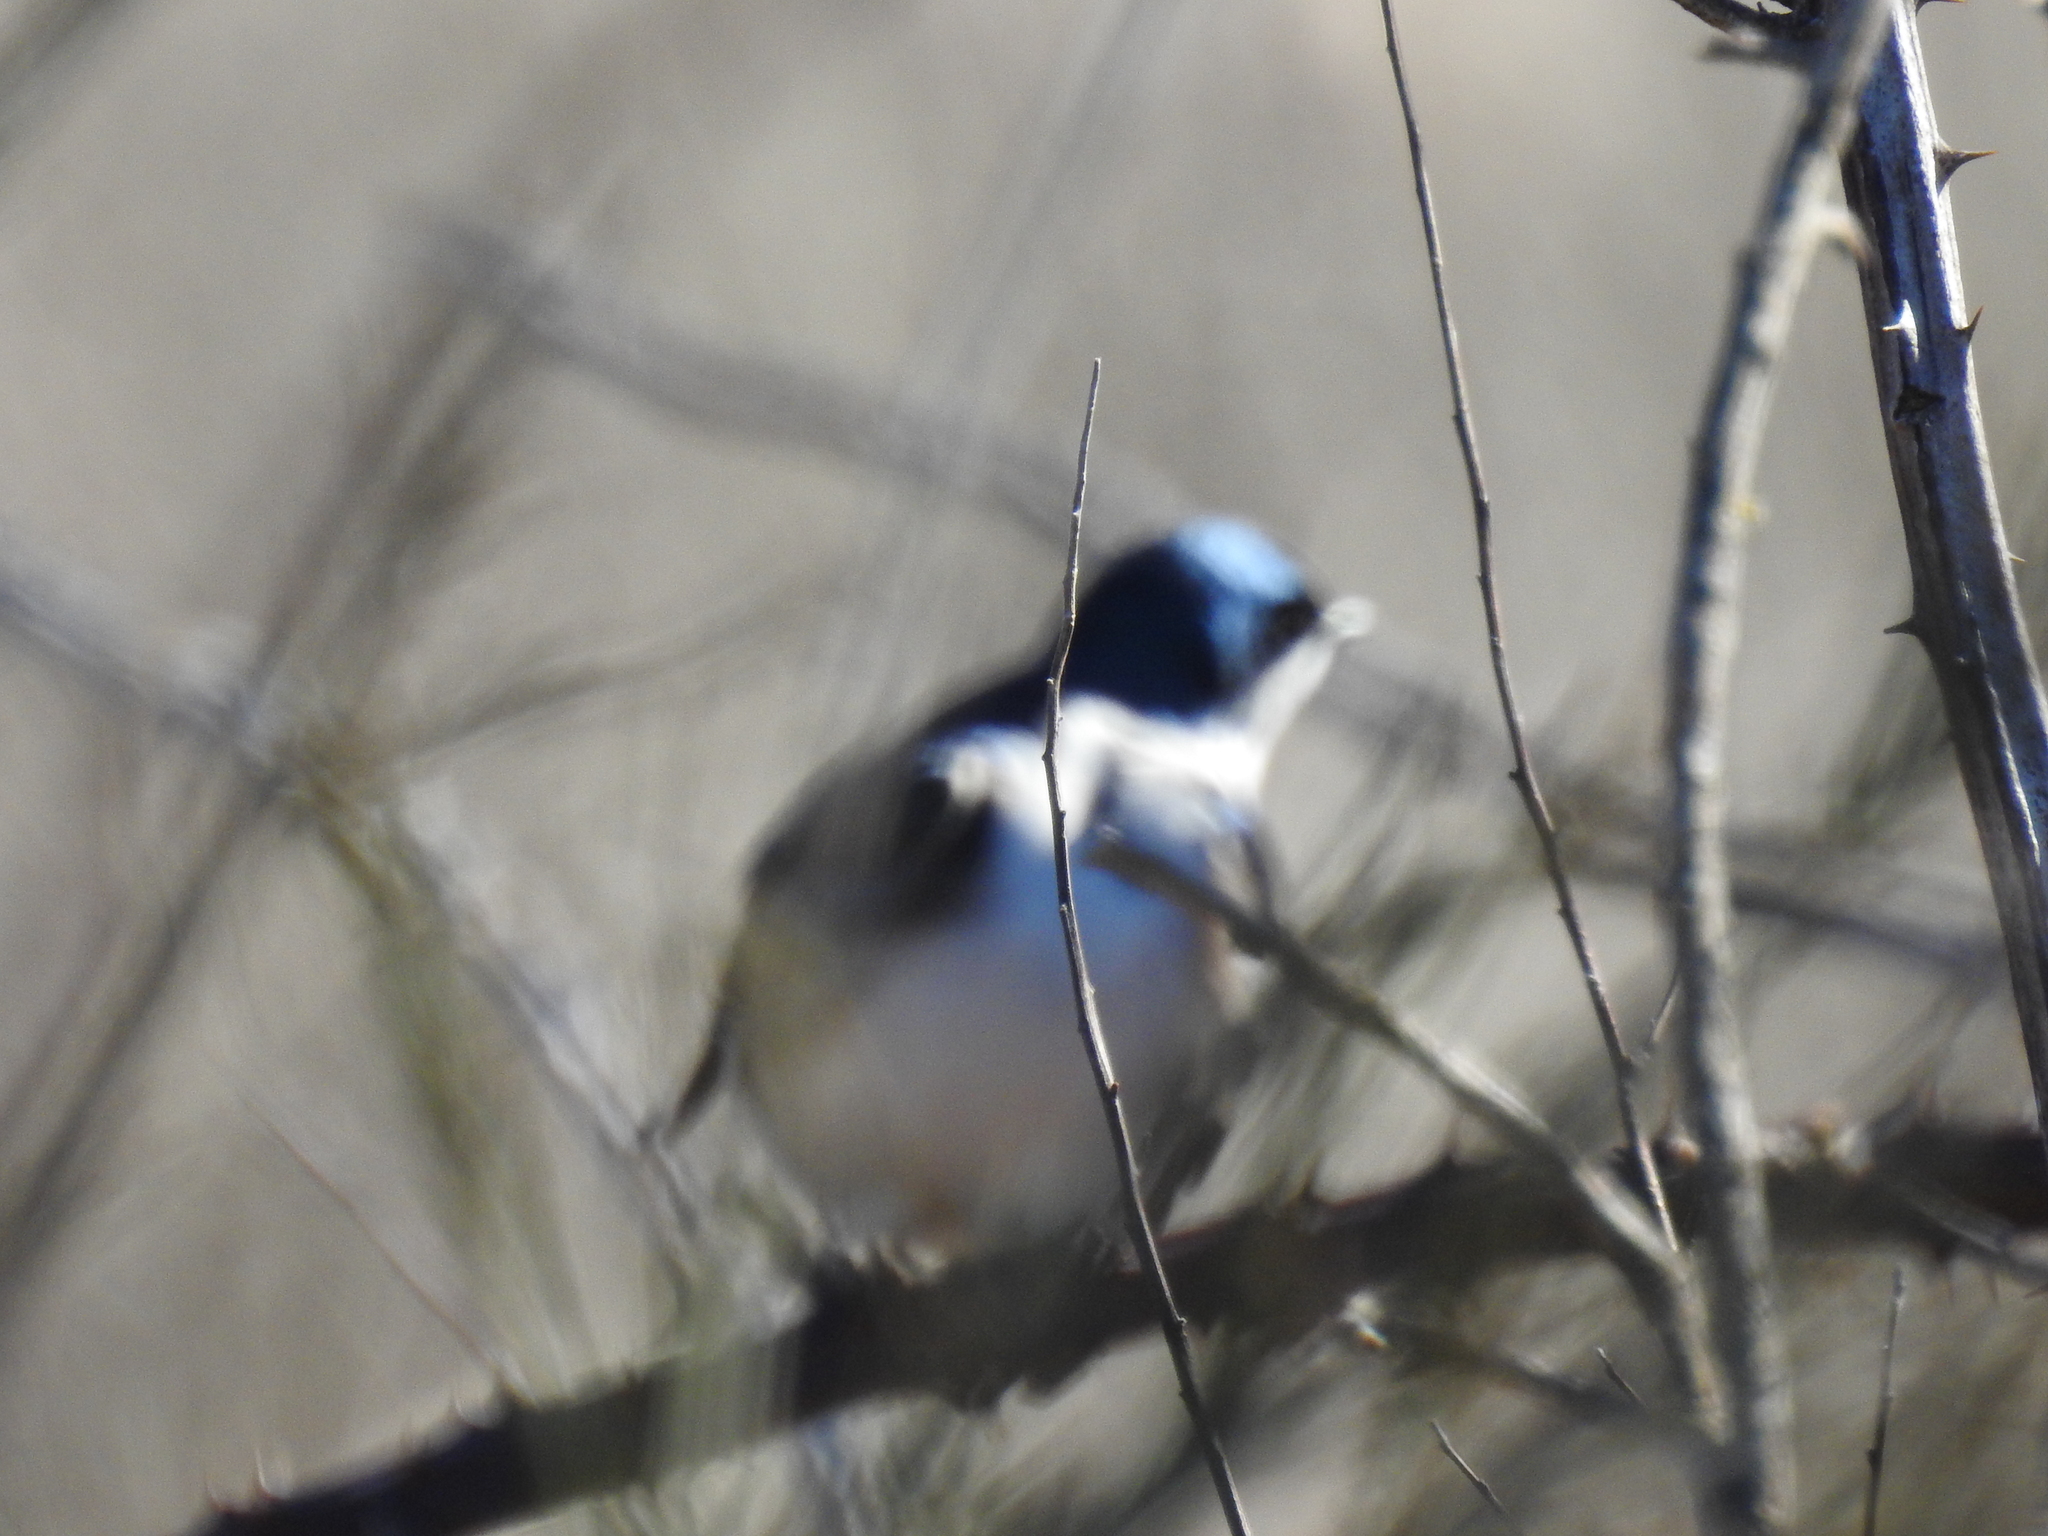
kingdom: Animalia
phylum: Chordata
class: Aves
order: Passeriformes
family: Hirundinidae
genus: Tachycineta
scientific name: Tachycineta bicolor
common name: Tree swallow
